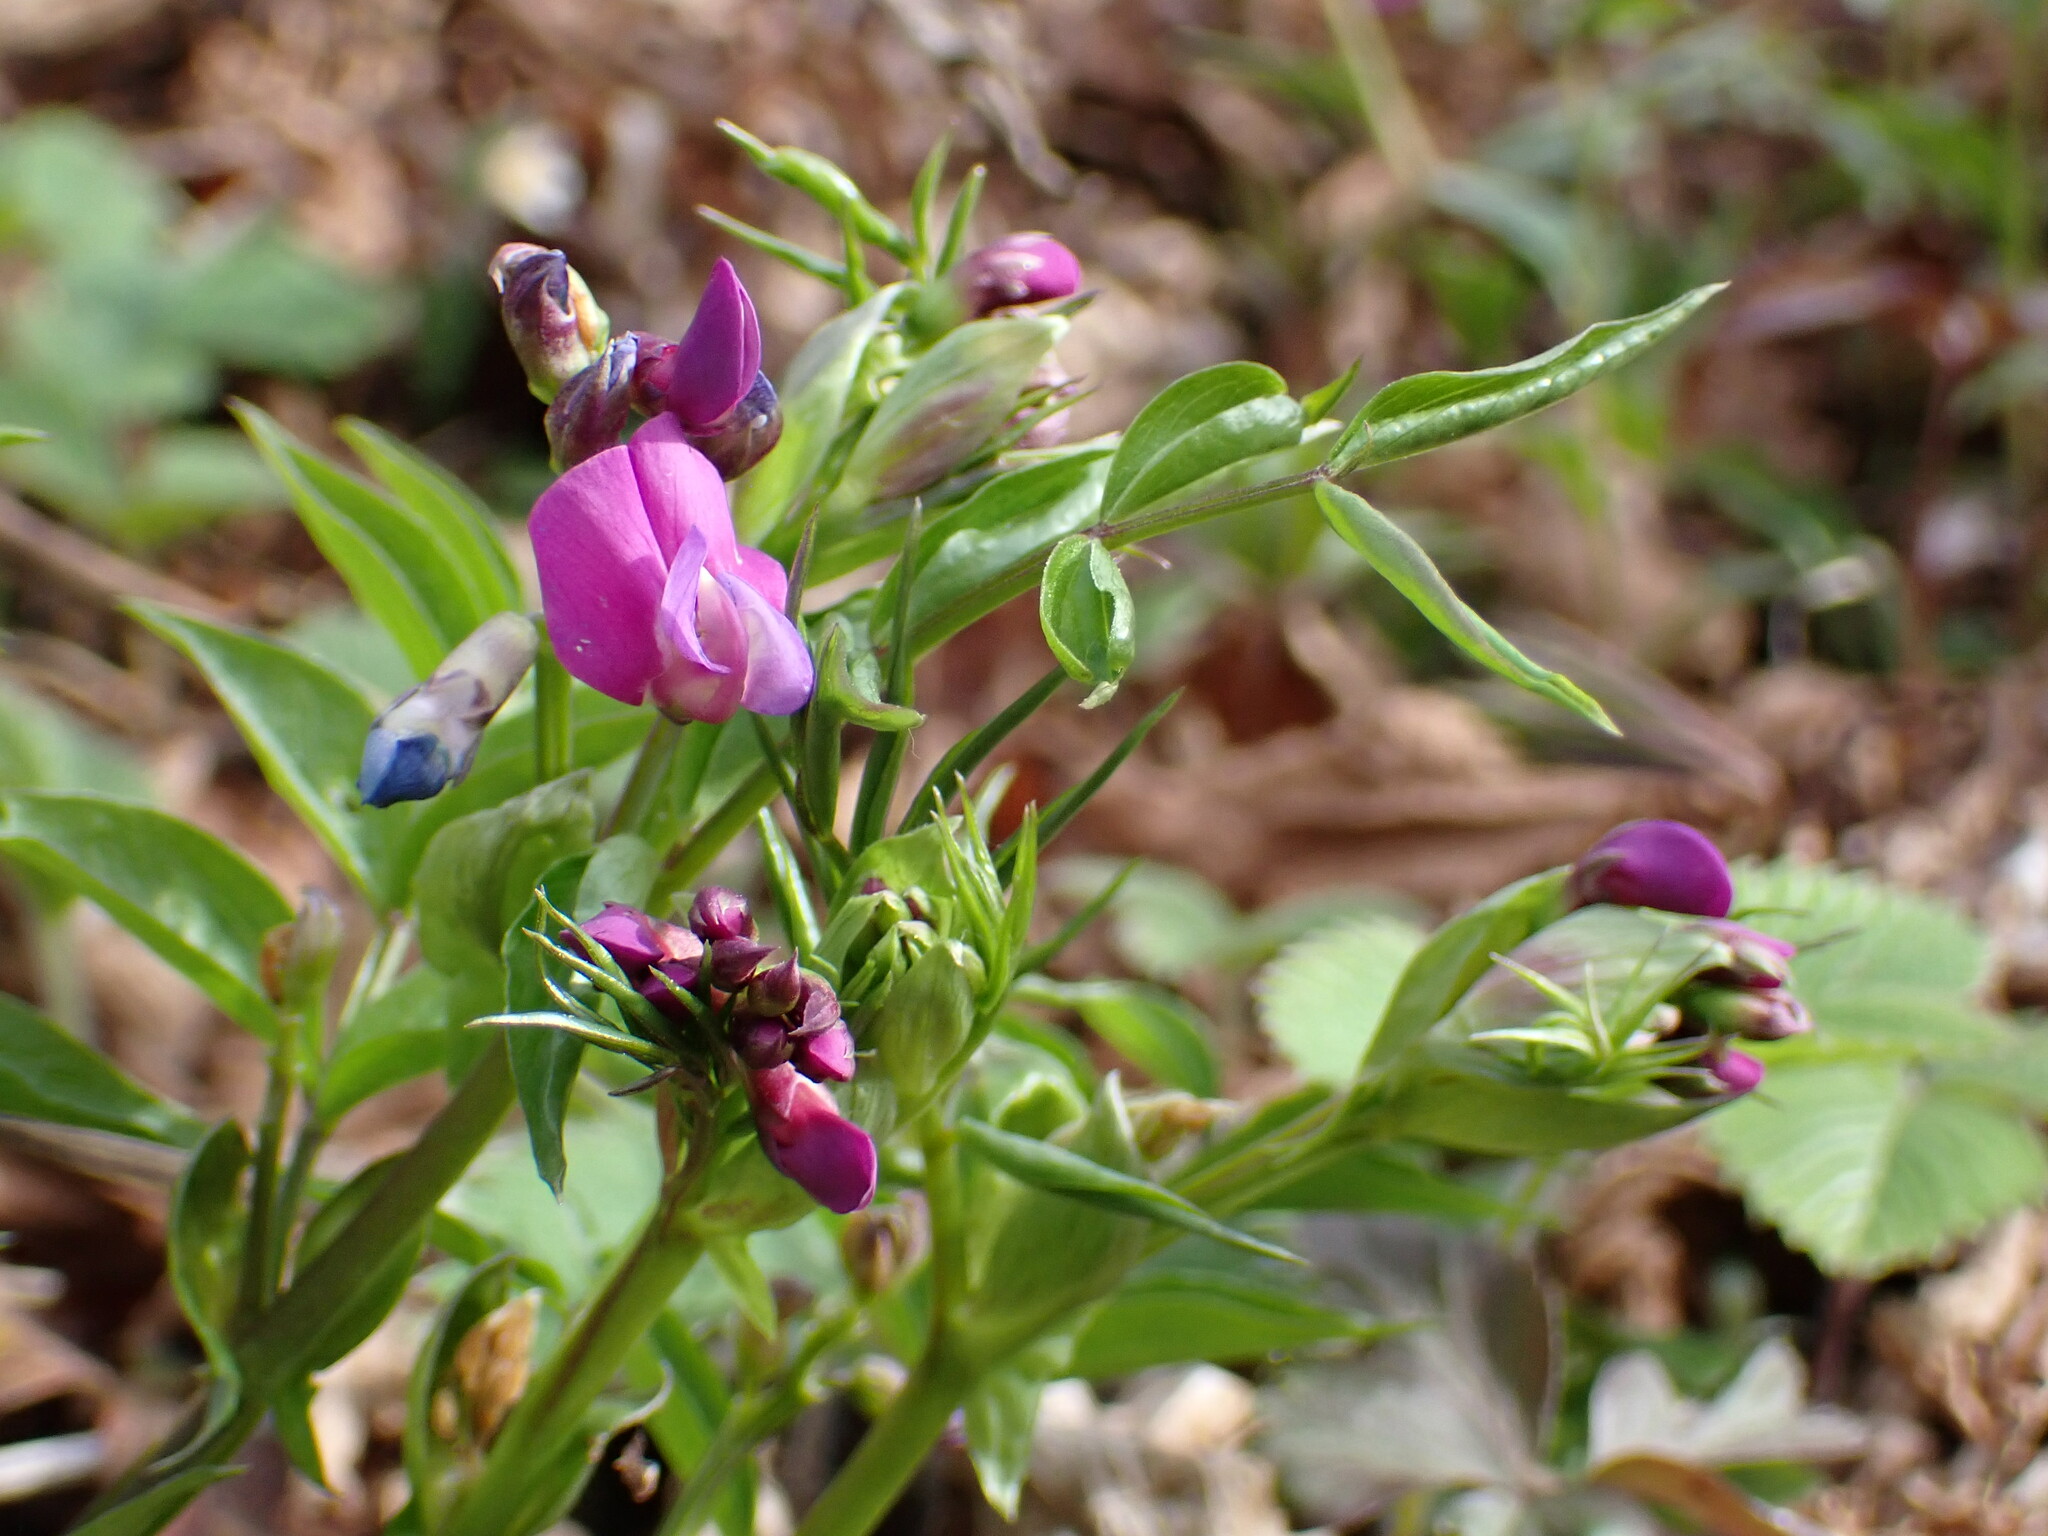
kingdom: Plantae
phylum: Tracheophyta
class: Magnoliopsida
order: Fabales
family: Fabaceae
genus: Lathyrus
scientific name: Lathyrus vernus
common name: Spring pea
